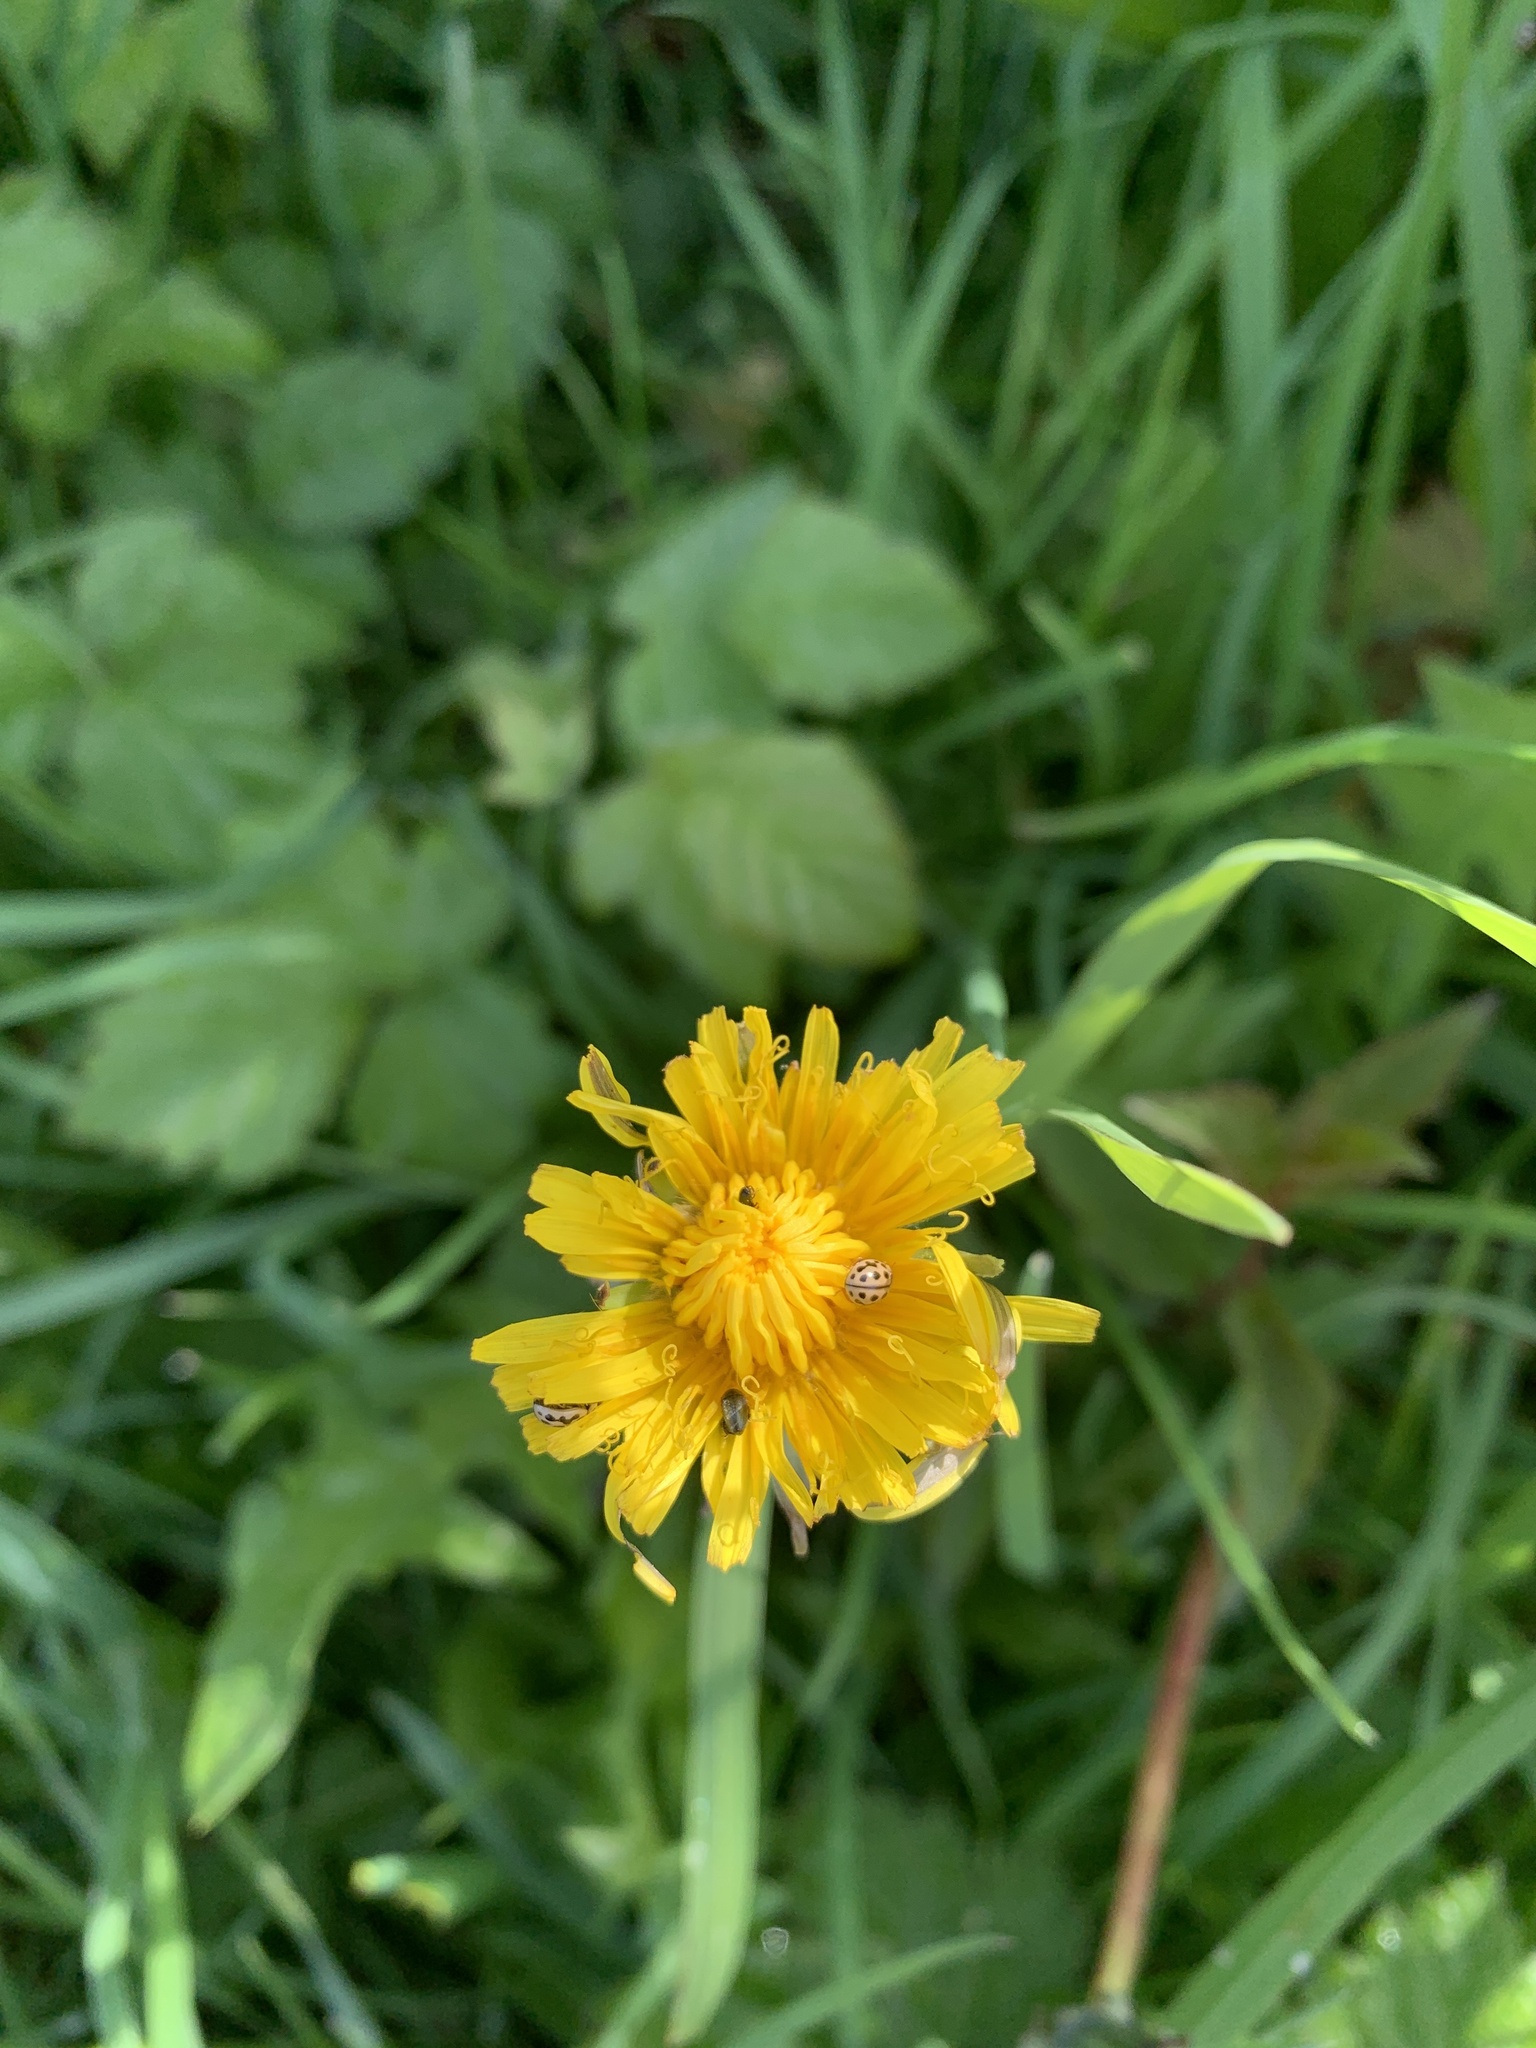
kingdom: Plantae
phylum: Tracheophyta
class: Magnoliopsida
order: Asterales
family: Asteraceae
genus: Taraxacum
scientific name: Taraxacum officinale
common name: Common dandelion
